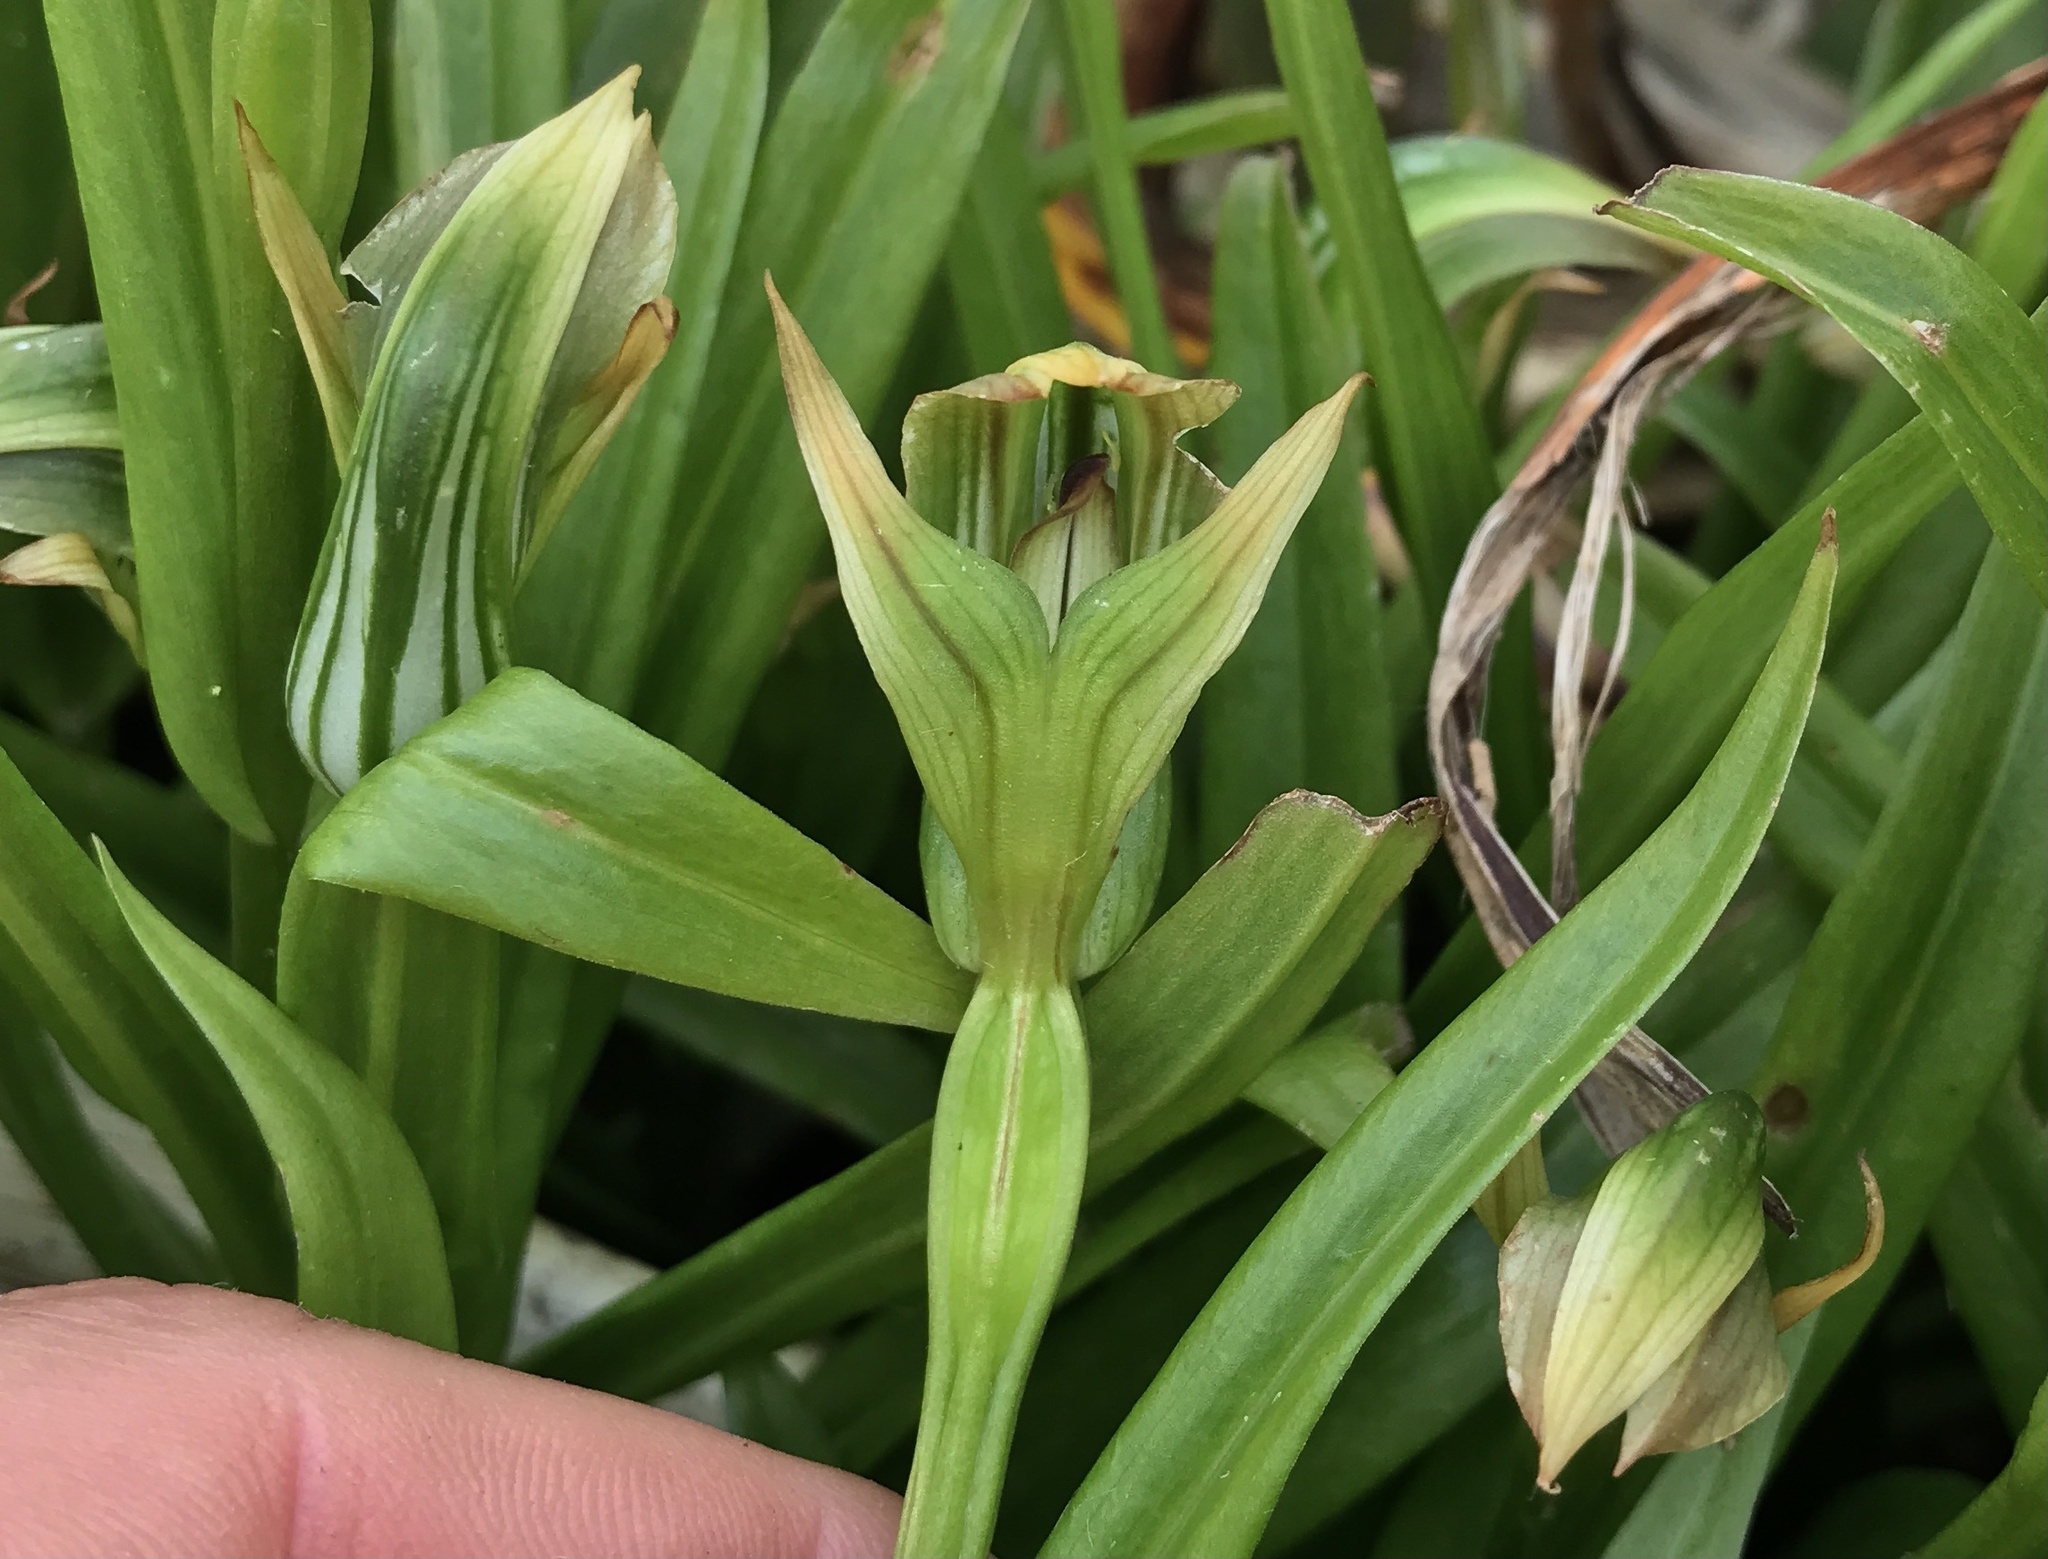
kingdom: Plantae
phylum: Tracheophyta
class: Liliopsida
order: Asparagales
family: Orchidaceae
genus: Pterostylis
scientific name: Pterostylis silvicultrix
